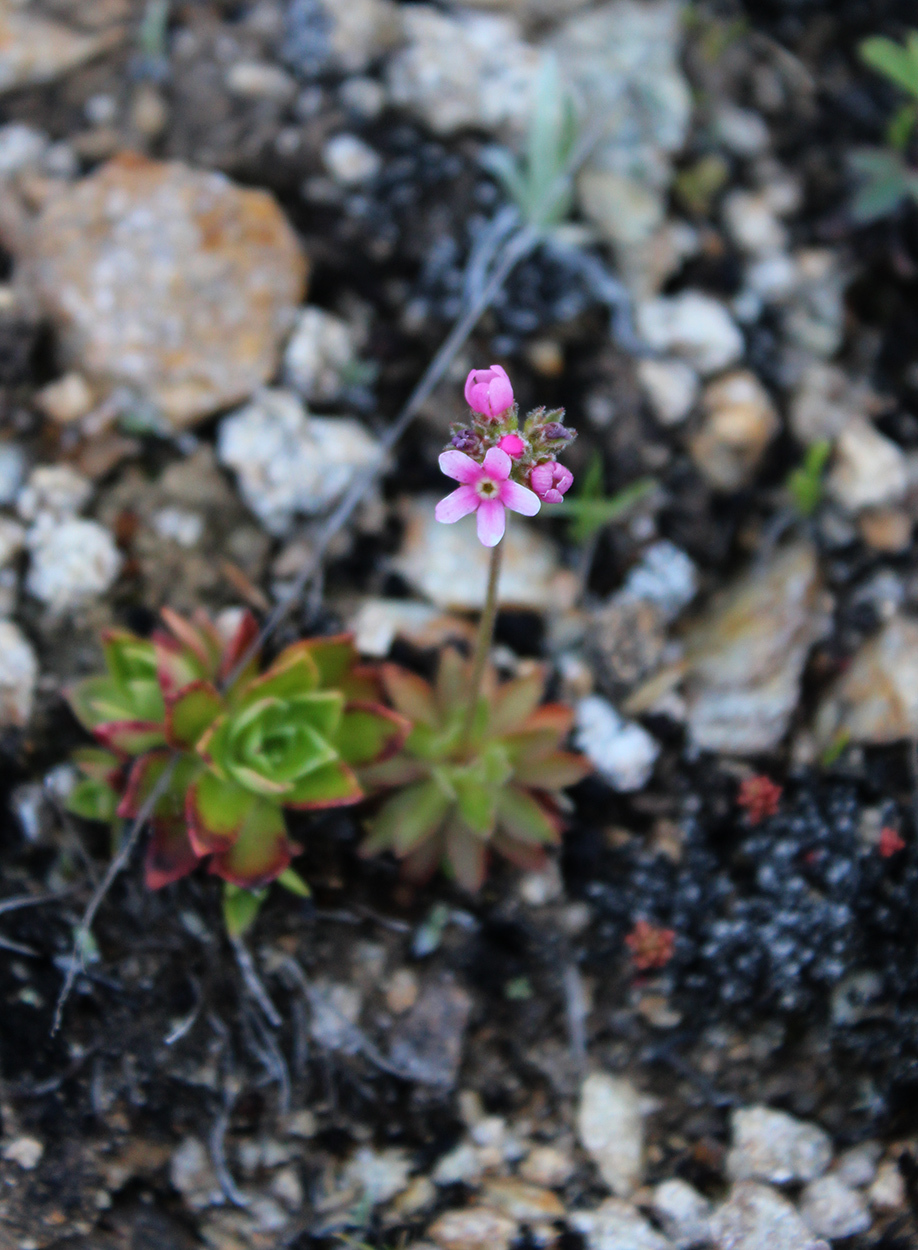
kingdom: Plantae
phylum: Tracheophyta
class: Magnoliopsida
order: Ericales
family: Primulaceae
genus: Androsace
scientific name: Androsace albana
